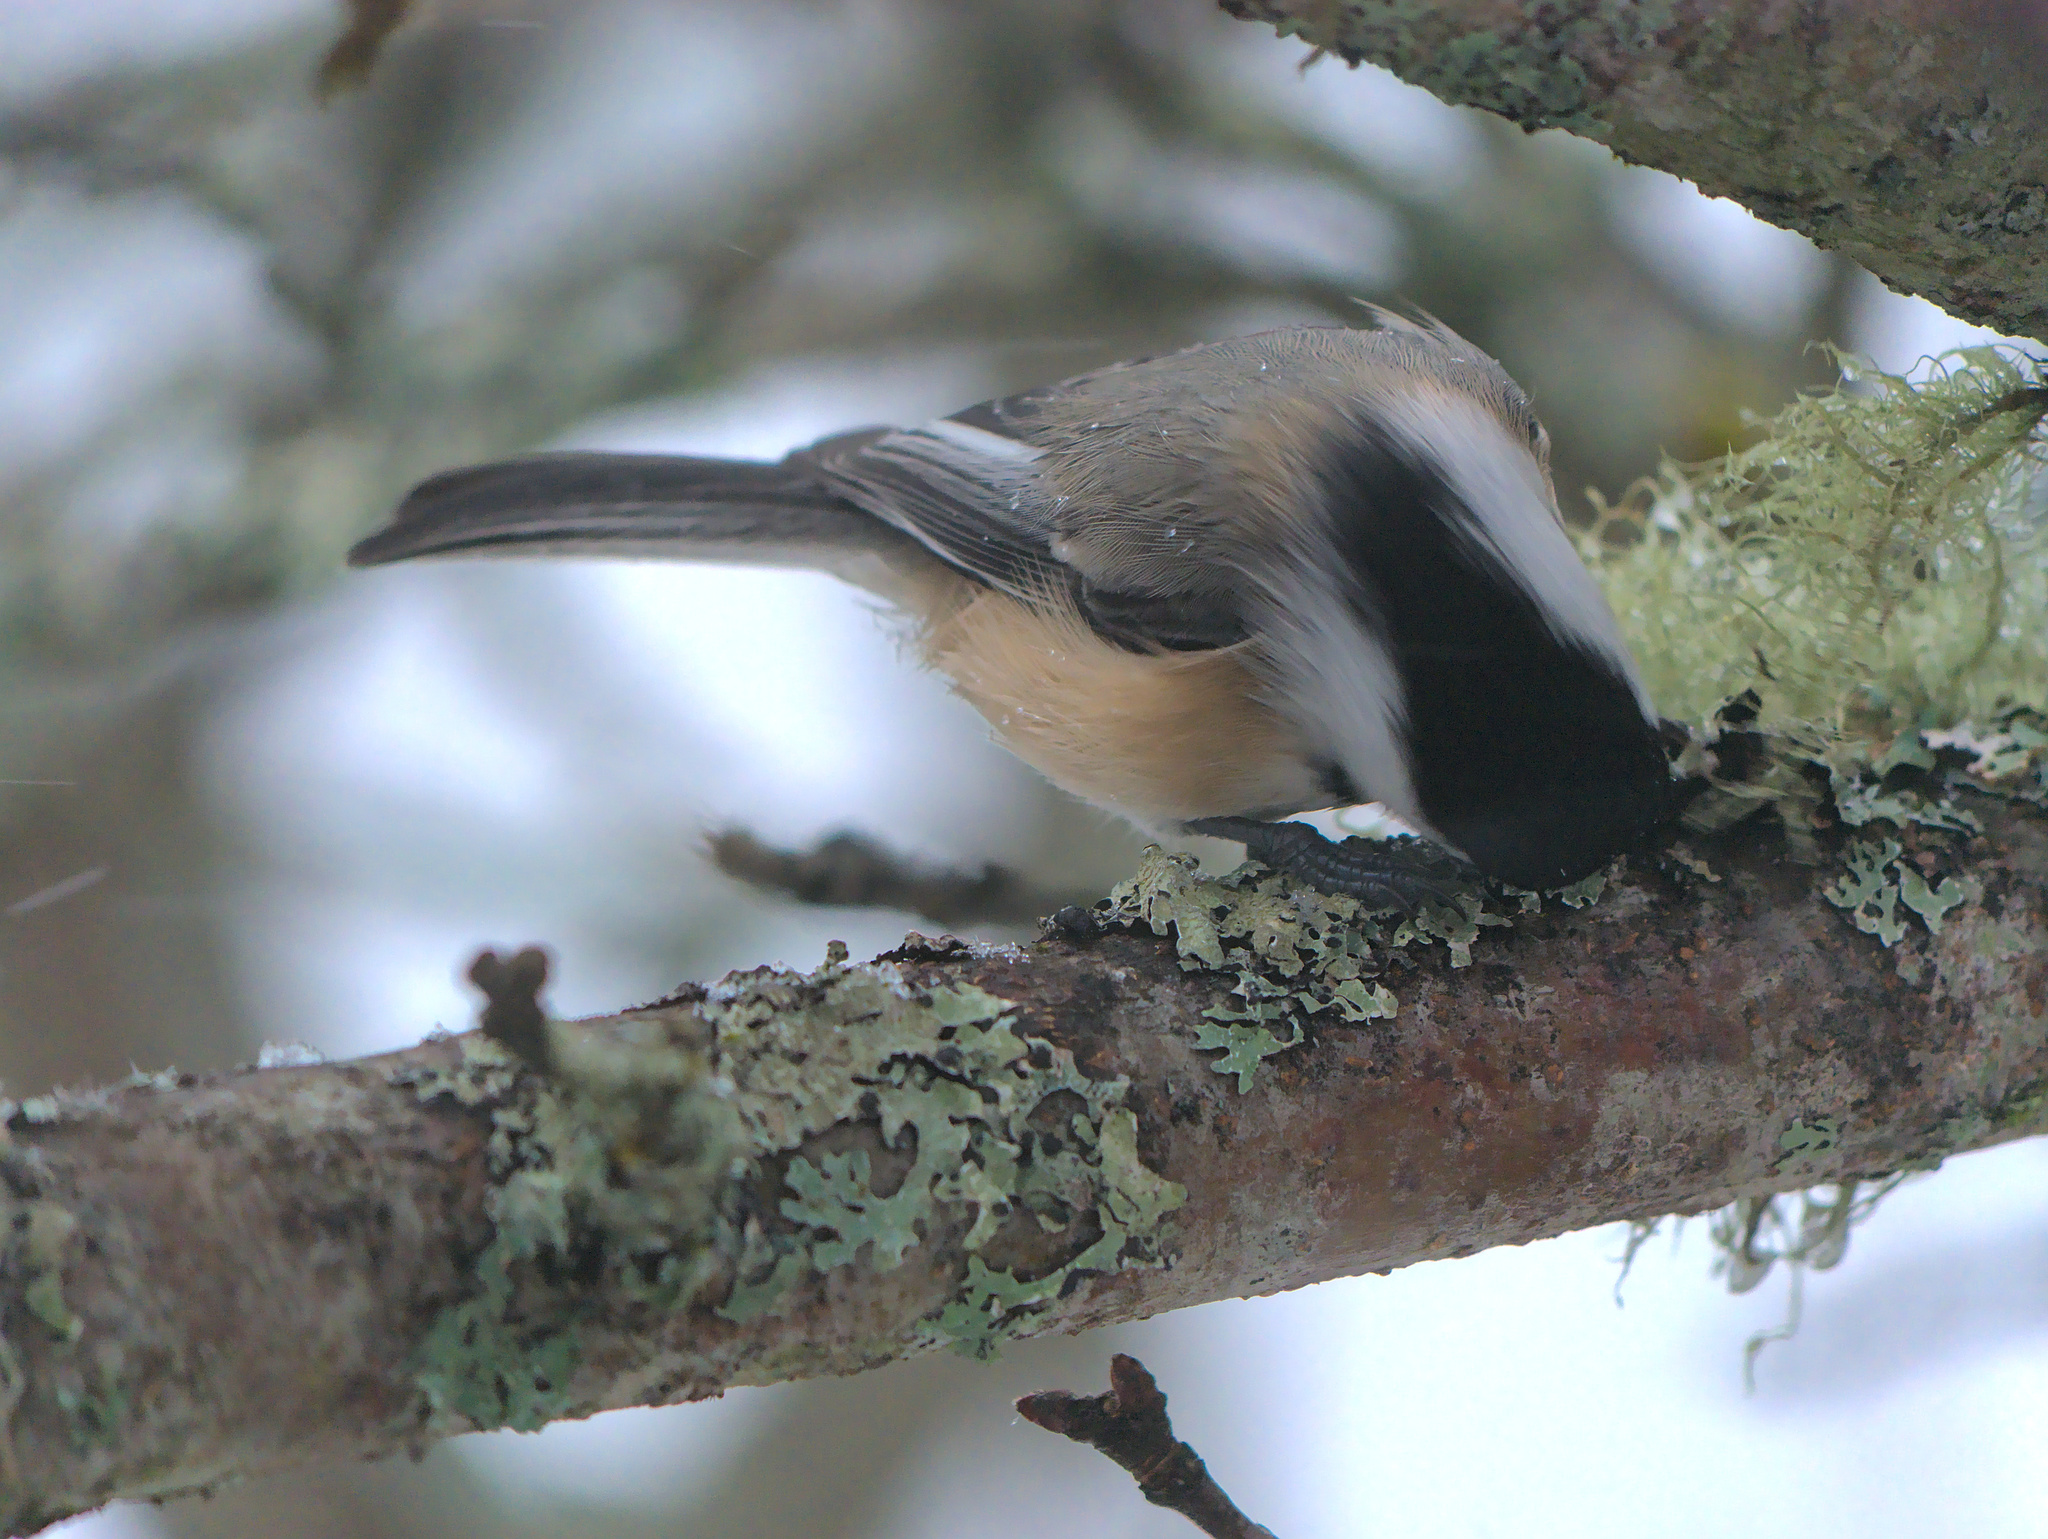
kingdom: Animalia
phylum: Chordata
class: Aves
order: Passeriformes
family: Paridae
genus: Poecile
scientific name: Poecile atricapillus
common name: Black-capped chickadee
